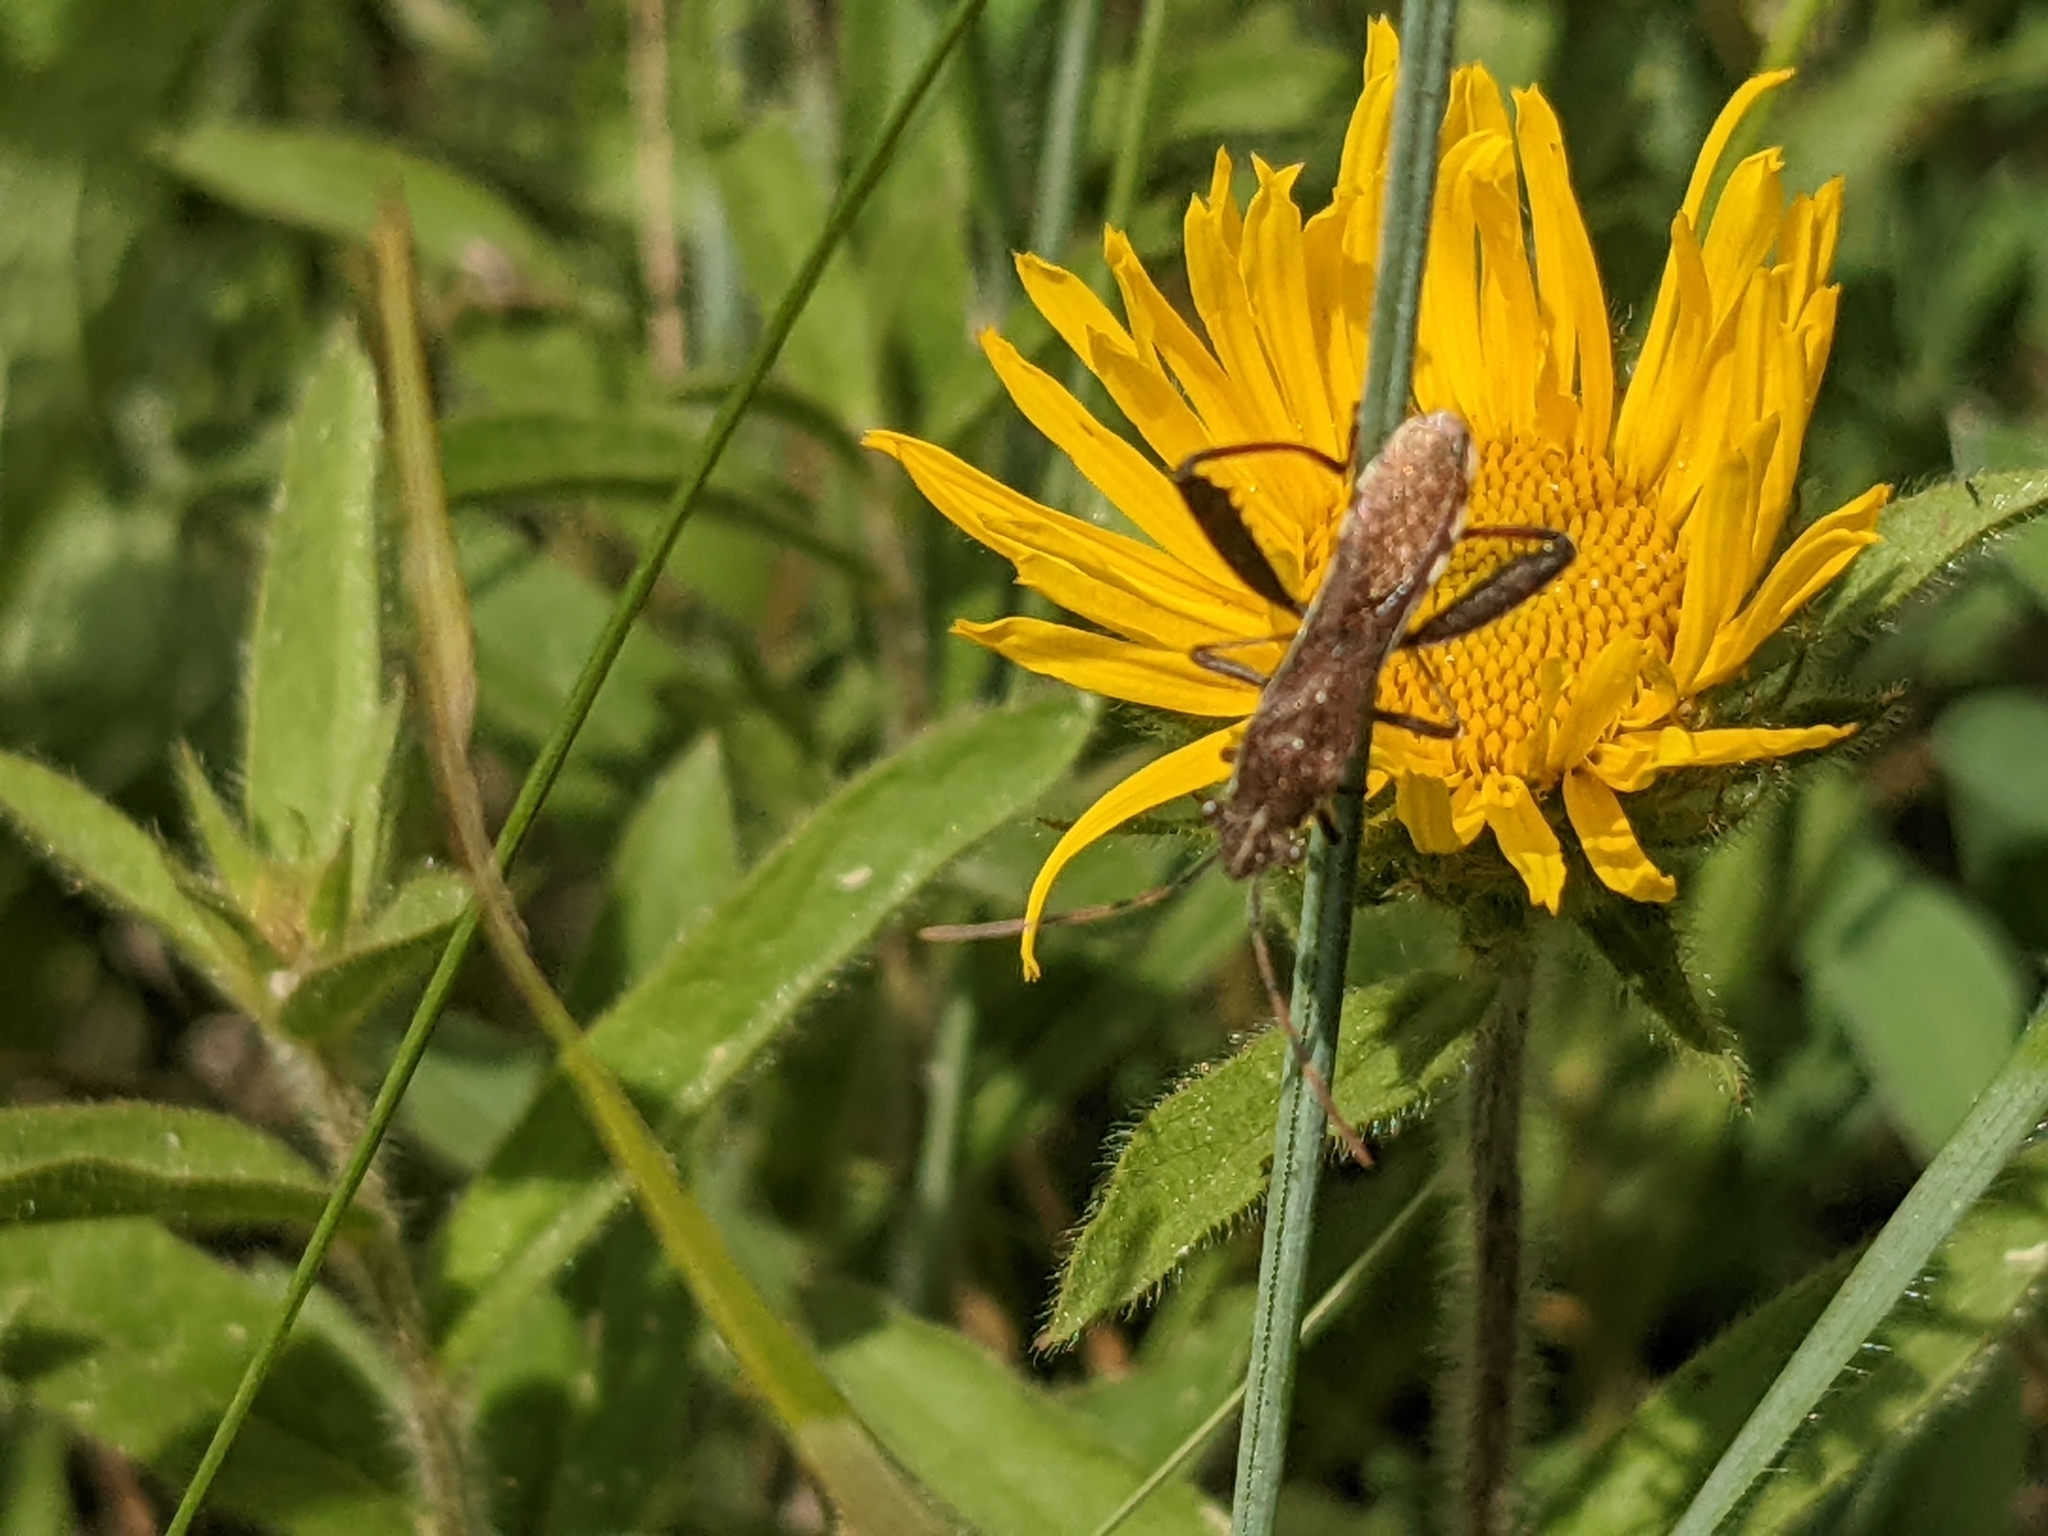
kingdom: Animalia
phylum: Arthropoda
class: Insecta
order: Hemiptera
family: Alydidae
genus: Camptopus
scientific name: Camptopus lateralis
